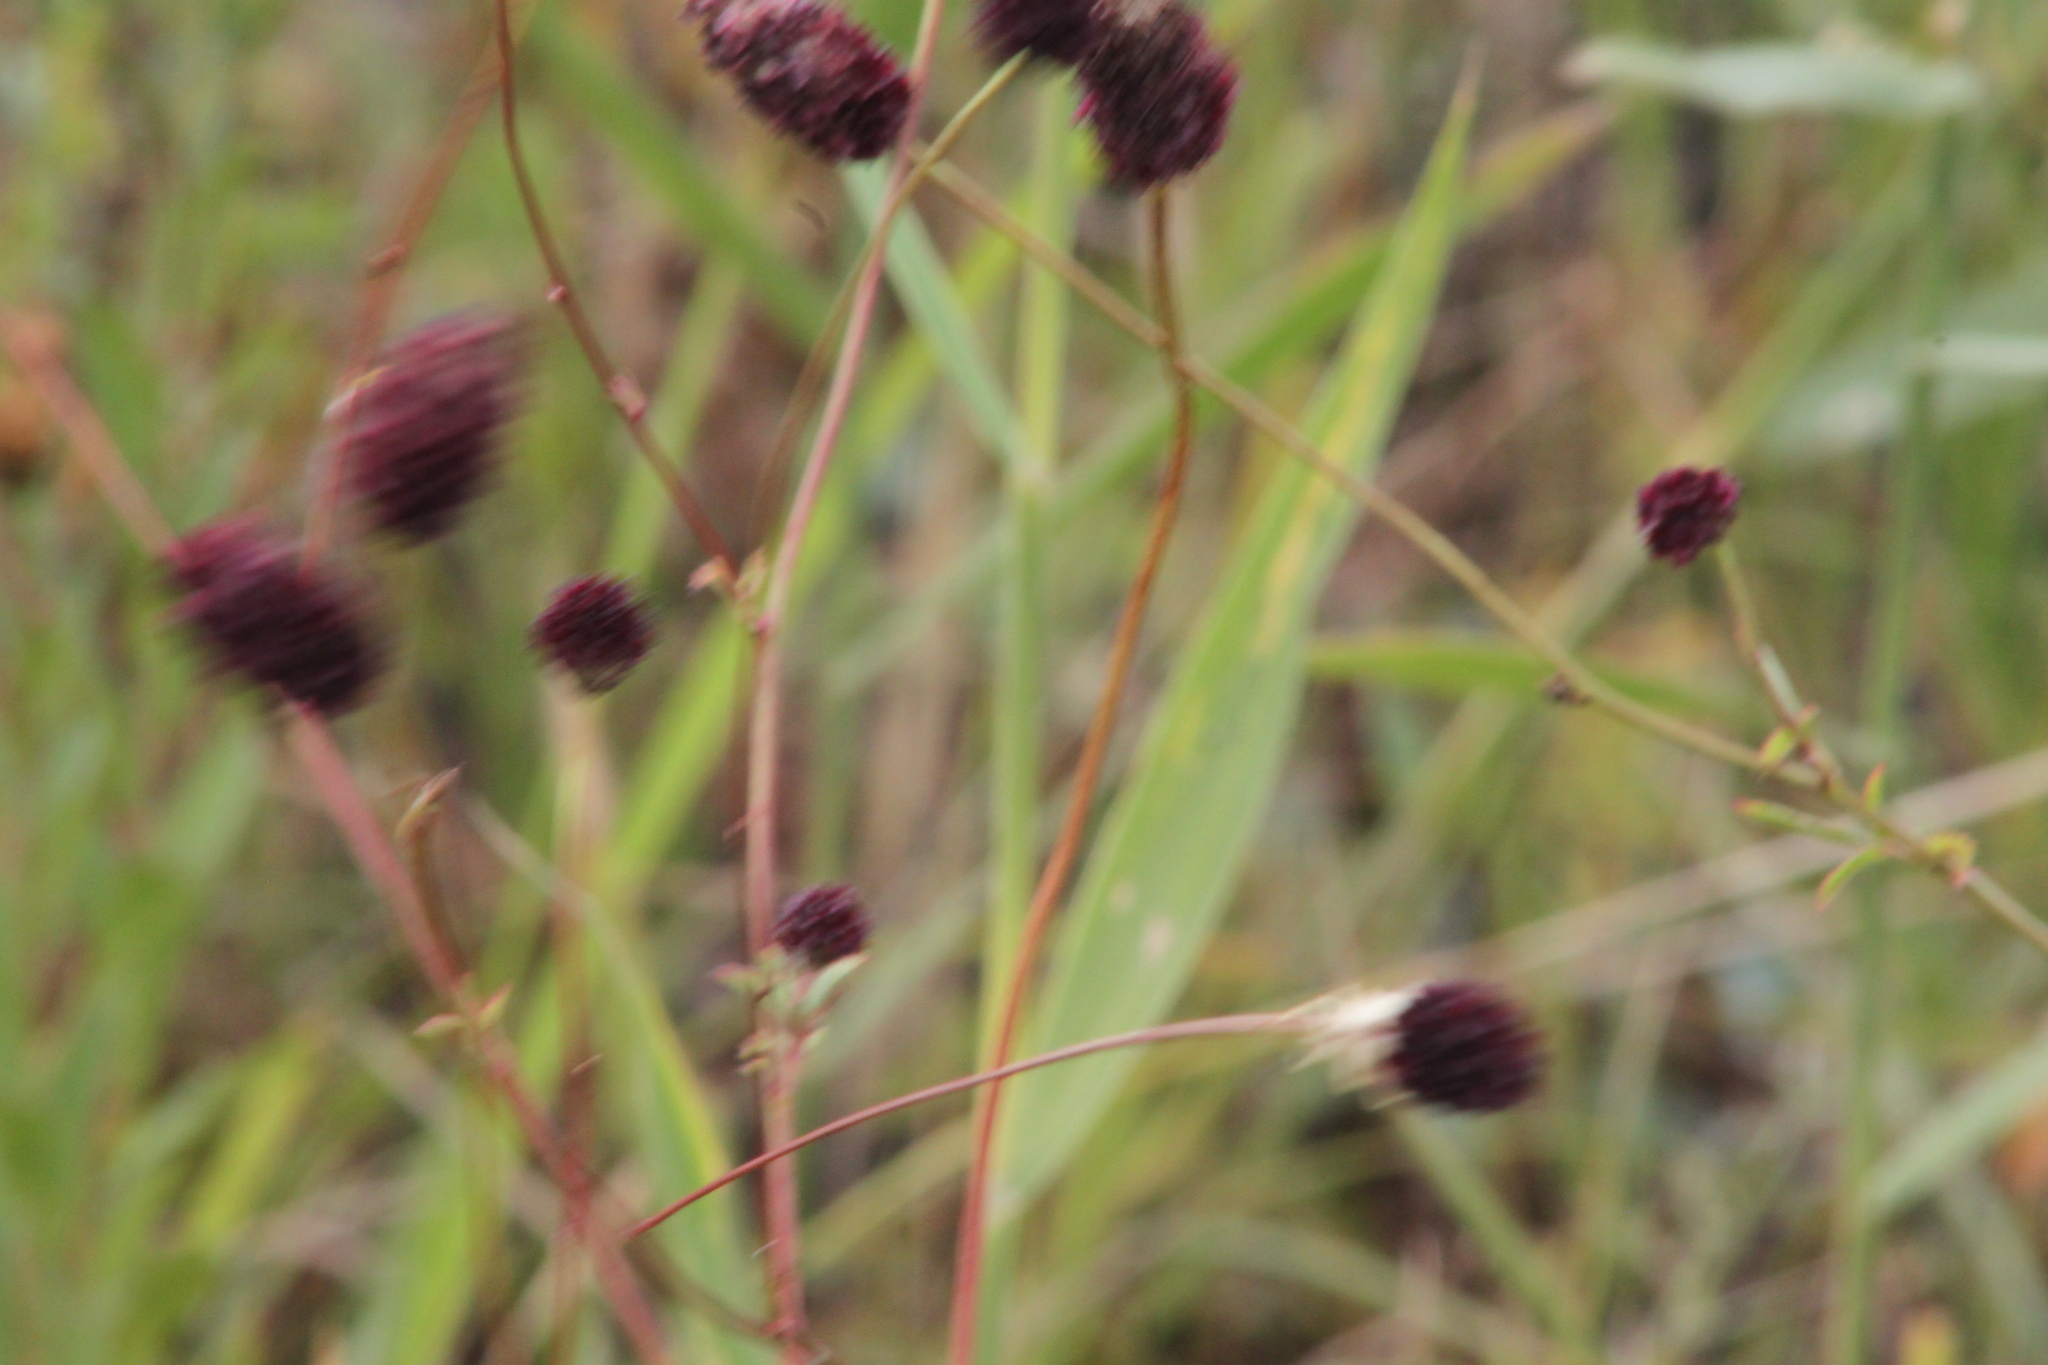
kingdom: Plantae
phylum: Tracheophyta
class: Magnoliopsida
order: Rosales
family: Rosaceae
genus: Sanguisorba
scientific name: Sanguisorba officinalis
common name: Great burnet
